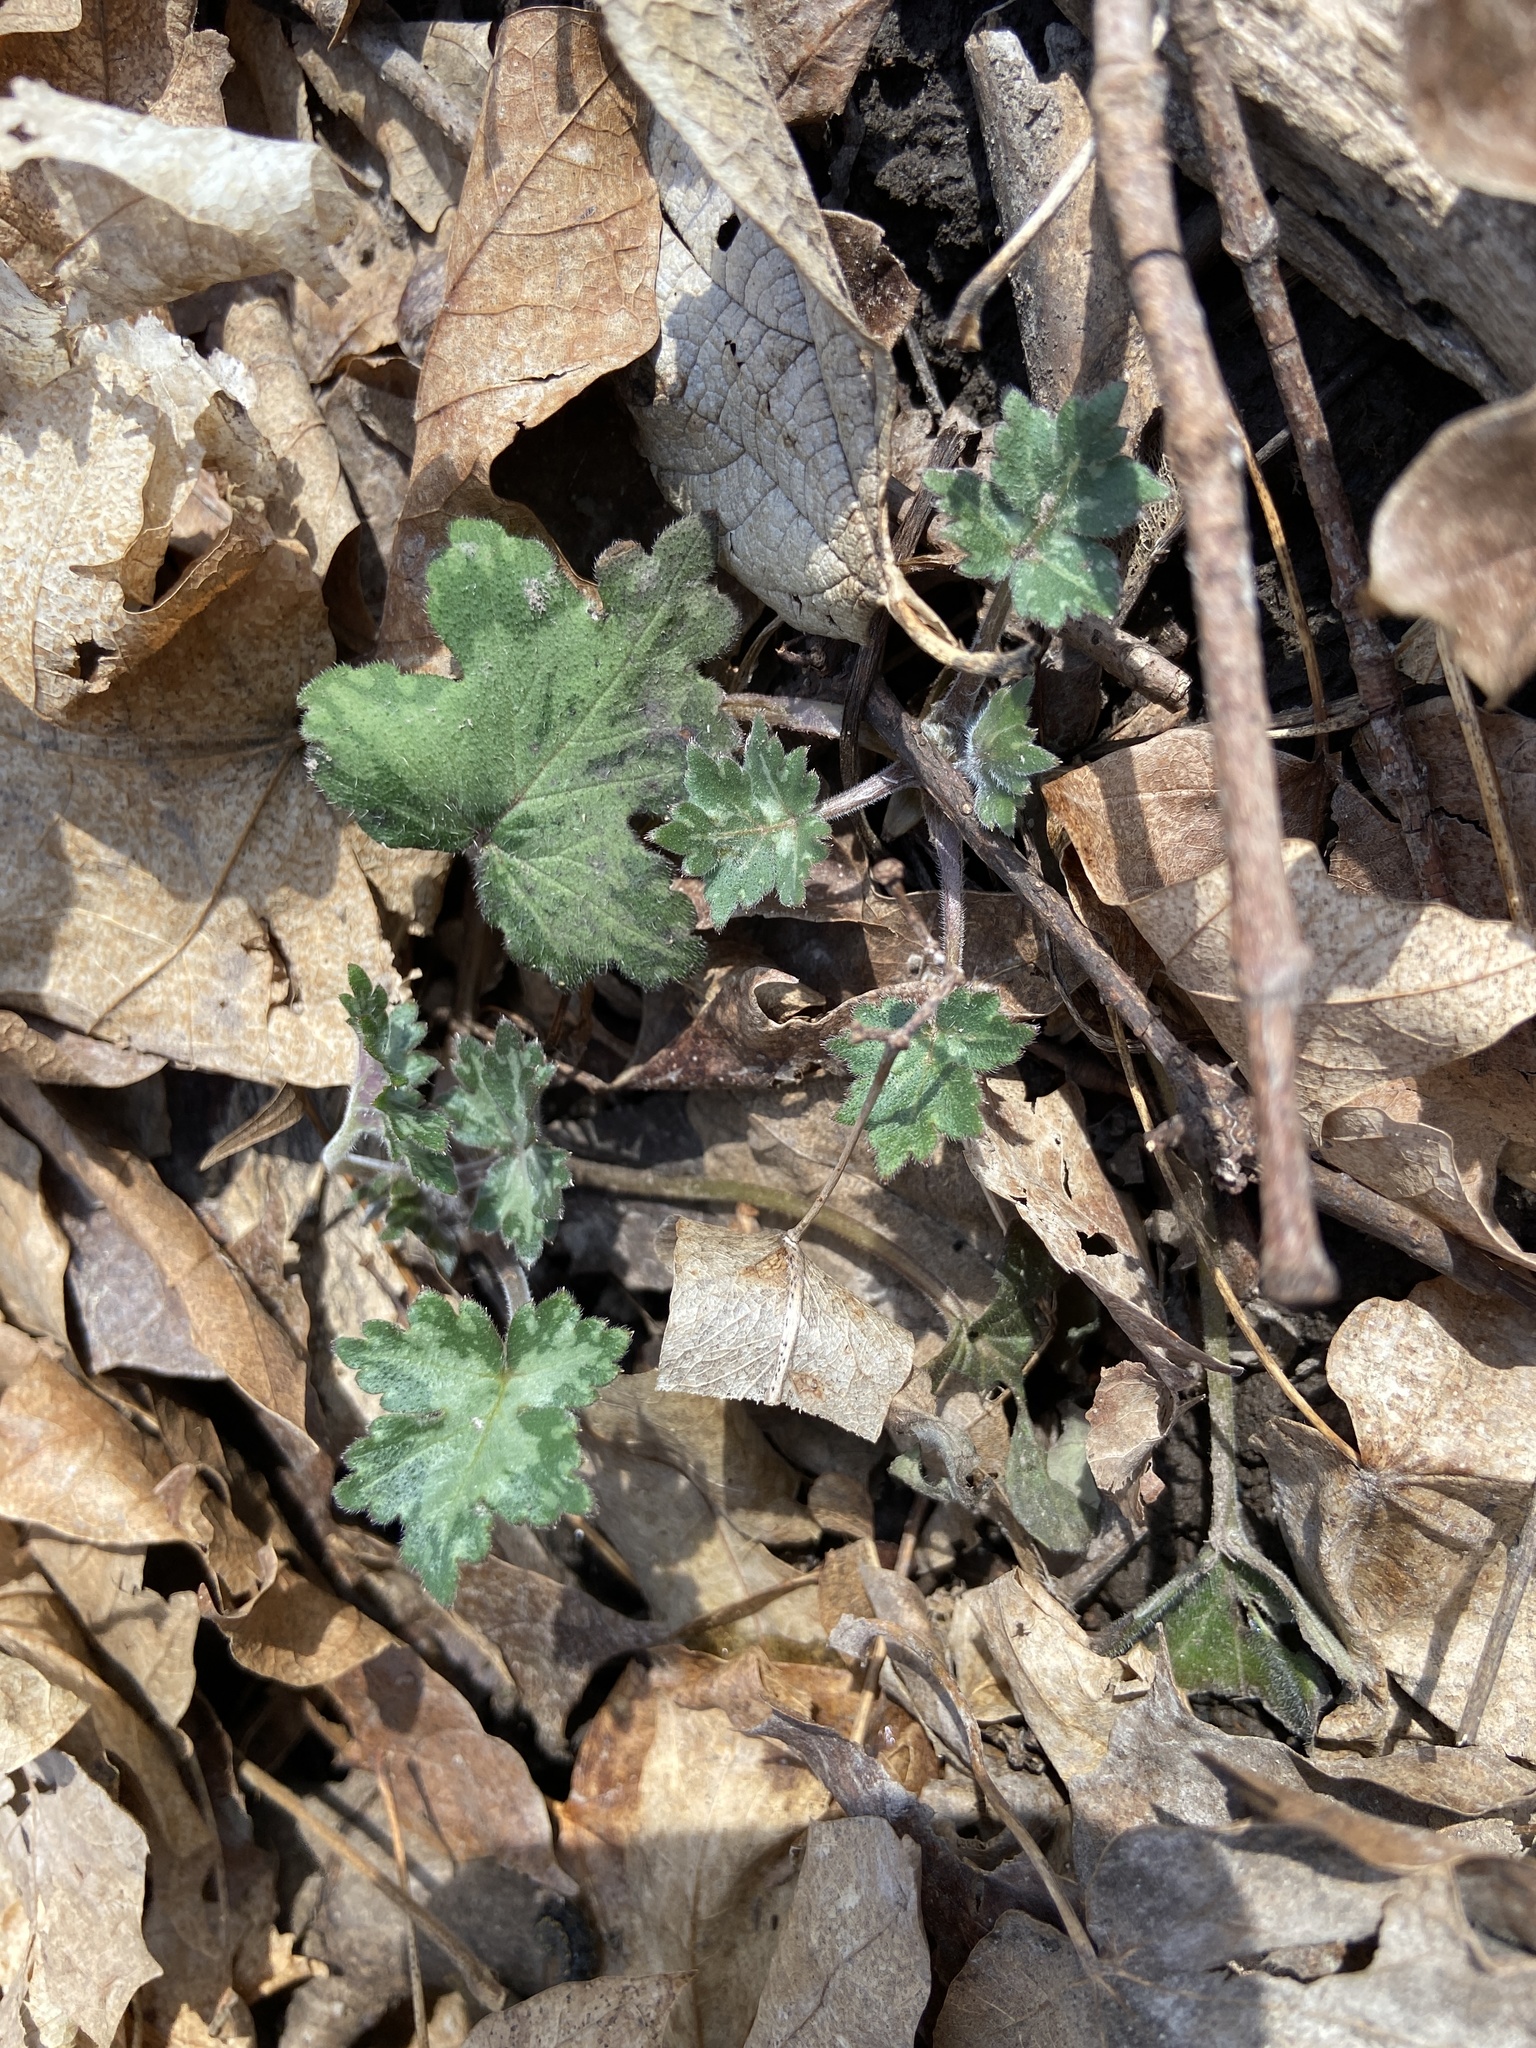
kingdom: Plantae
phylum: Tracheophyta
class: Magnoliopsida
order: Boraginales
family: Hydrophyllaceae
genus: Hydrophyllum
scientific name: Hydrophyllum appendiculatum
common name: Appendaged waterleaf
